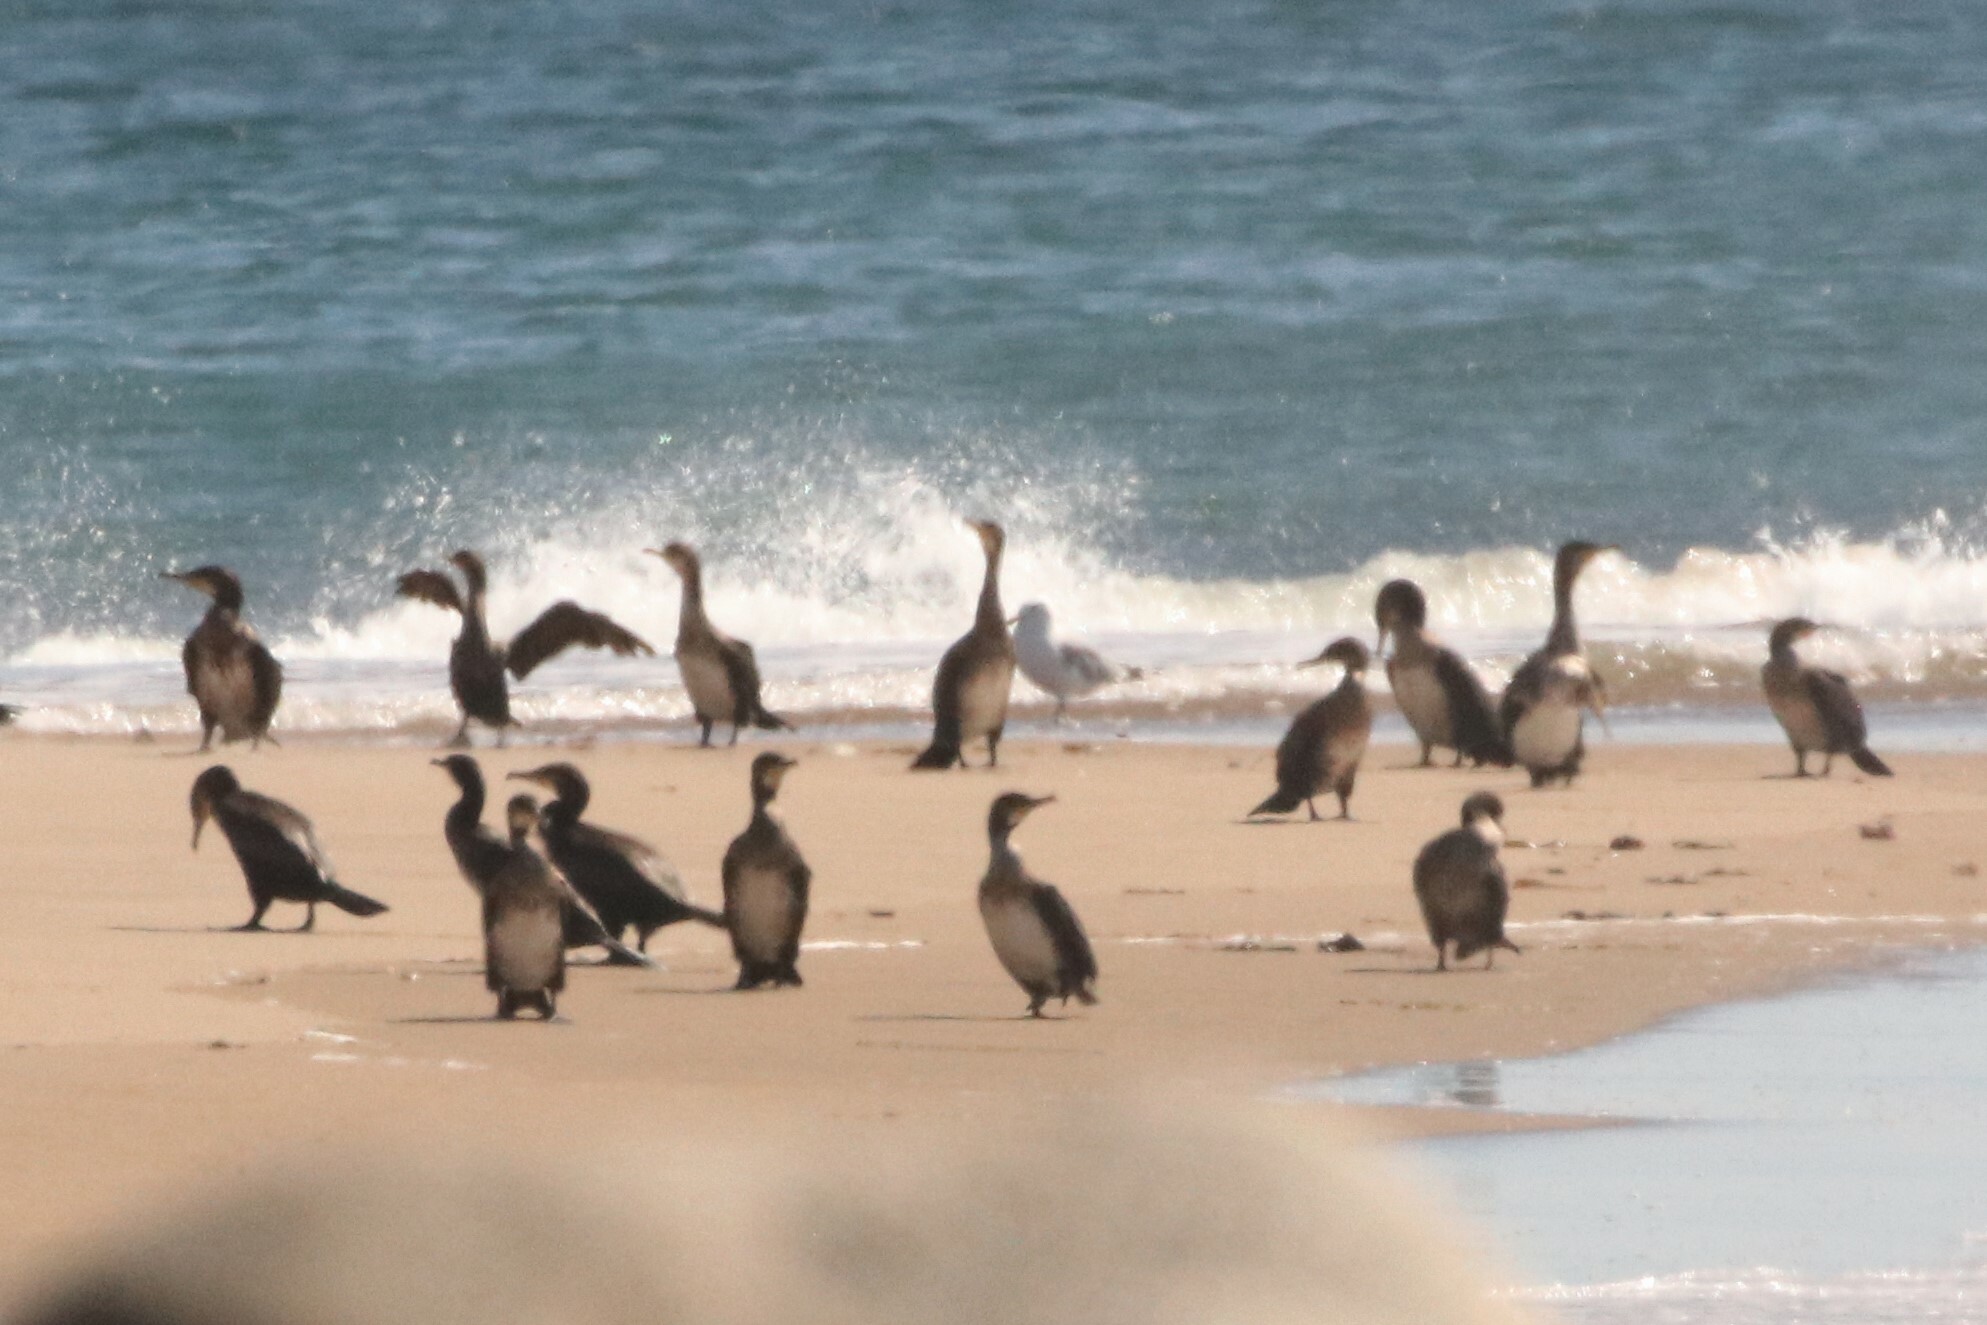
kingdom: Animalia
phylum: Chordata
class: Aves
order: Suliformes
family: Phalacrocoracidae
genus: Phalacrocorax
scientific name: Phalacrocorax carbo
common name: Great cormorant
